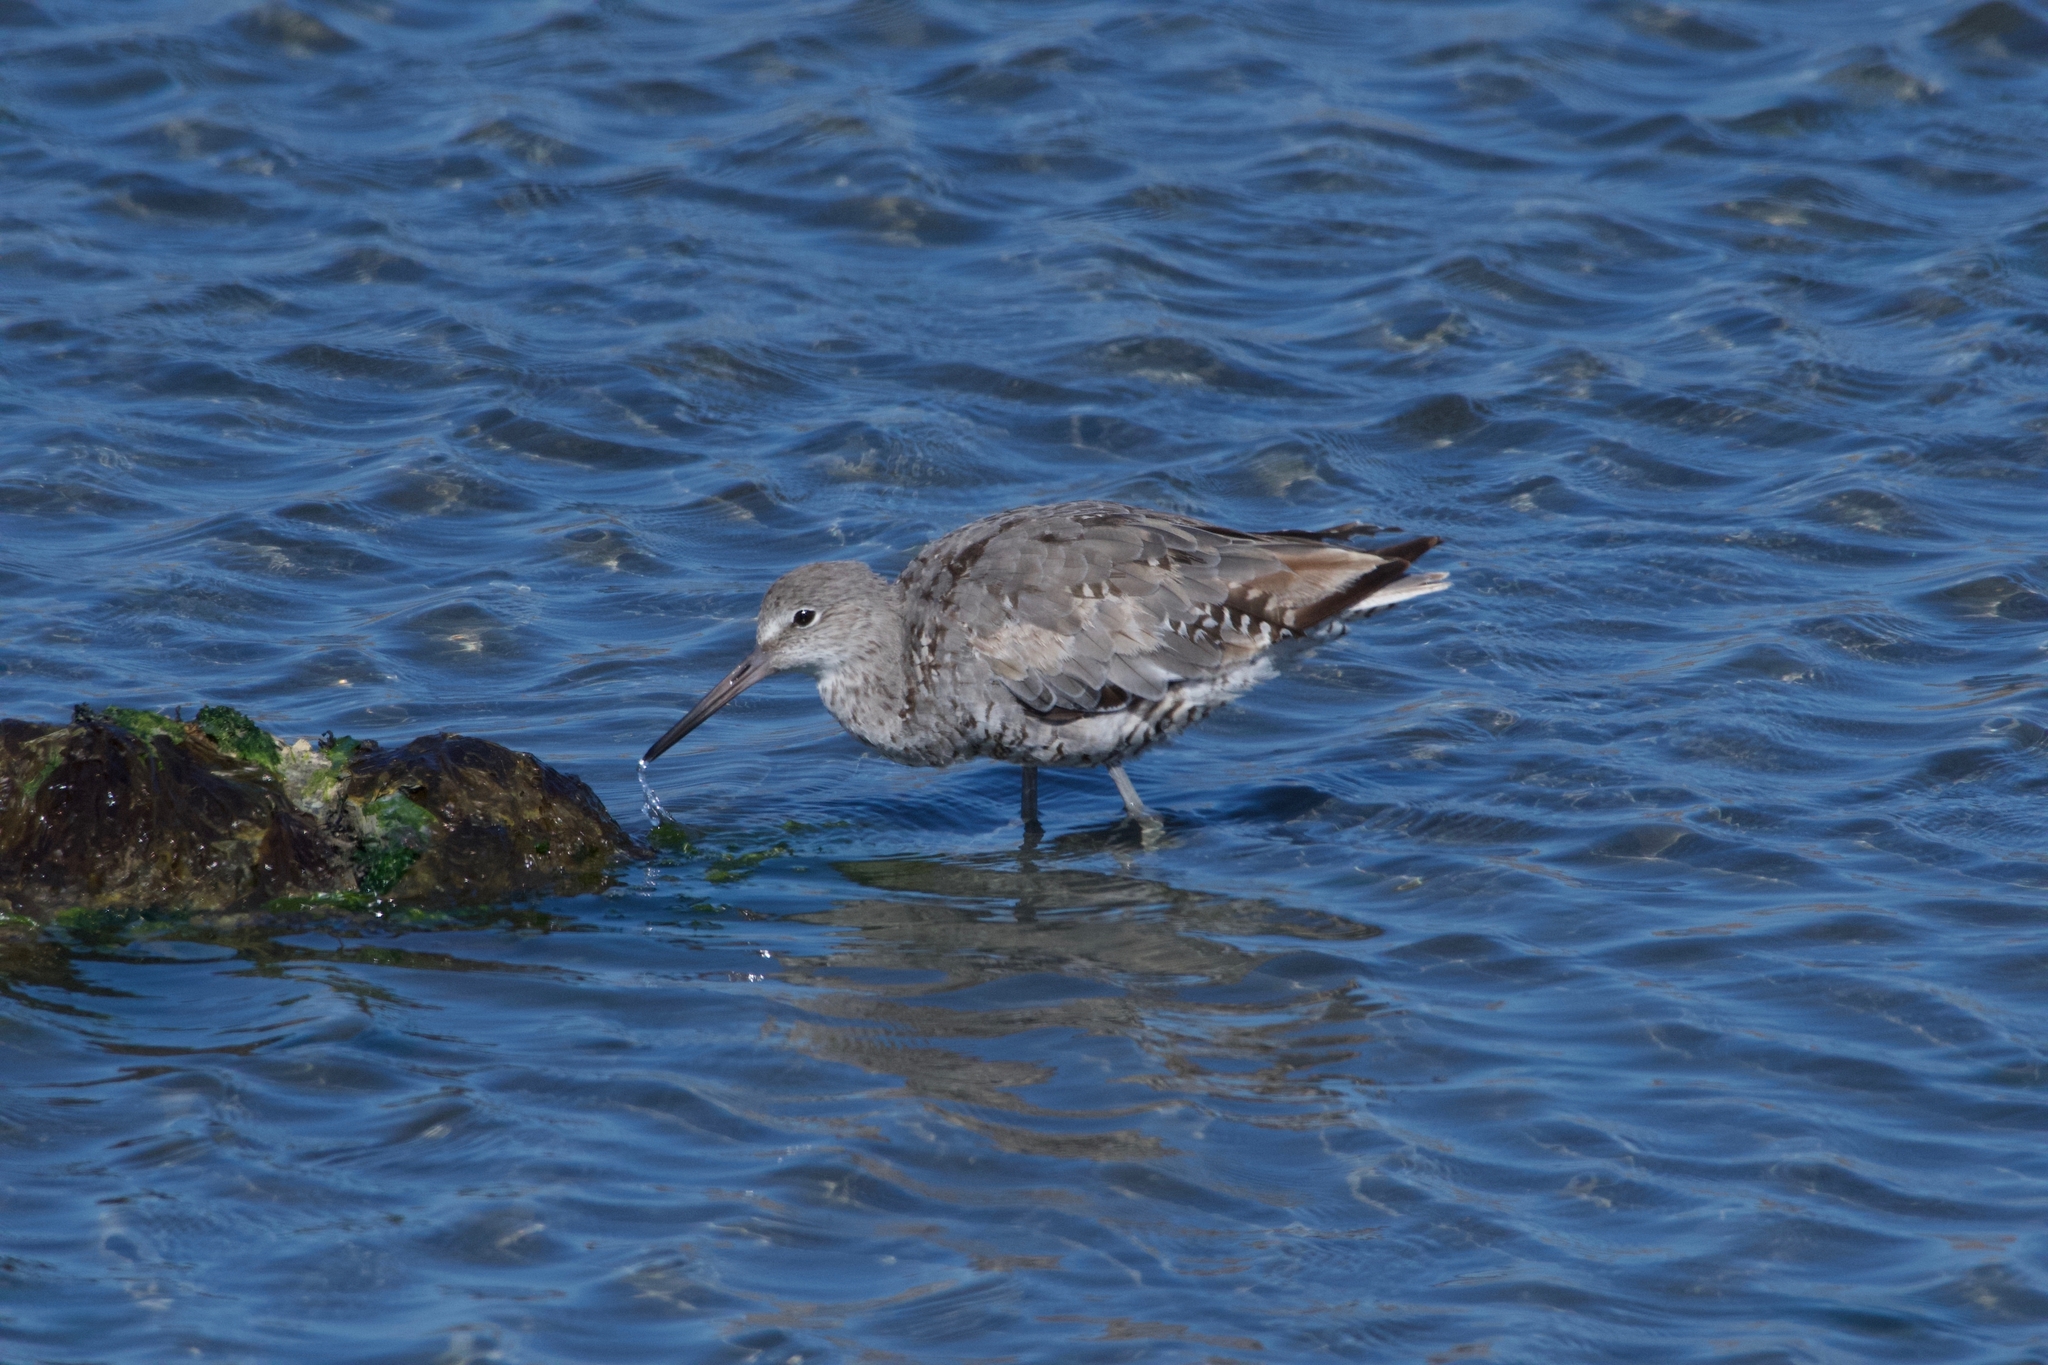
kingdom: Animalia
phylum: Chordata
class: Aves
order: Charadriiformes
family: Scolopacidae
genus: Tringa
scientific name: Tringa semipalmata
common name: Willet
